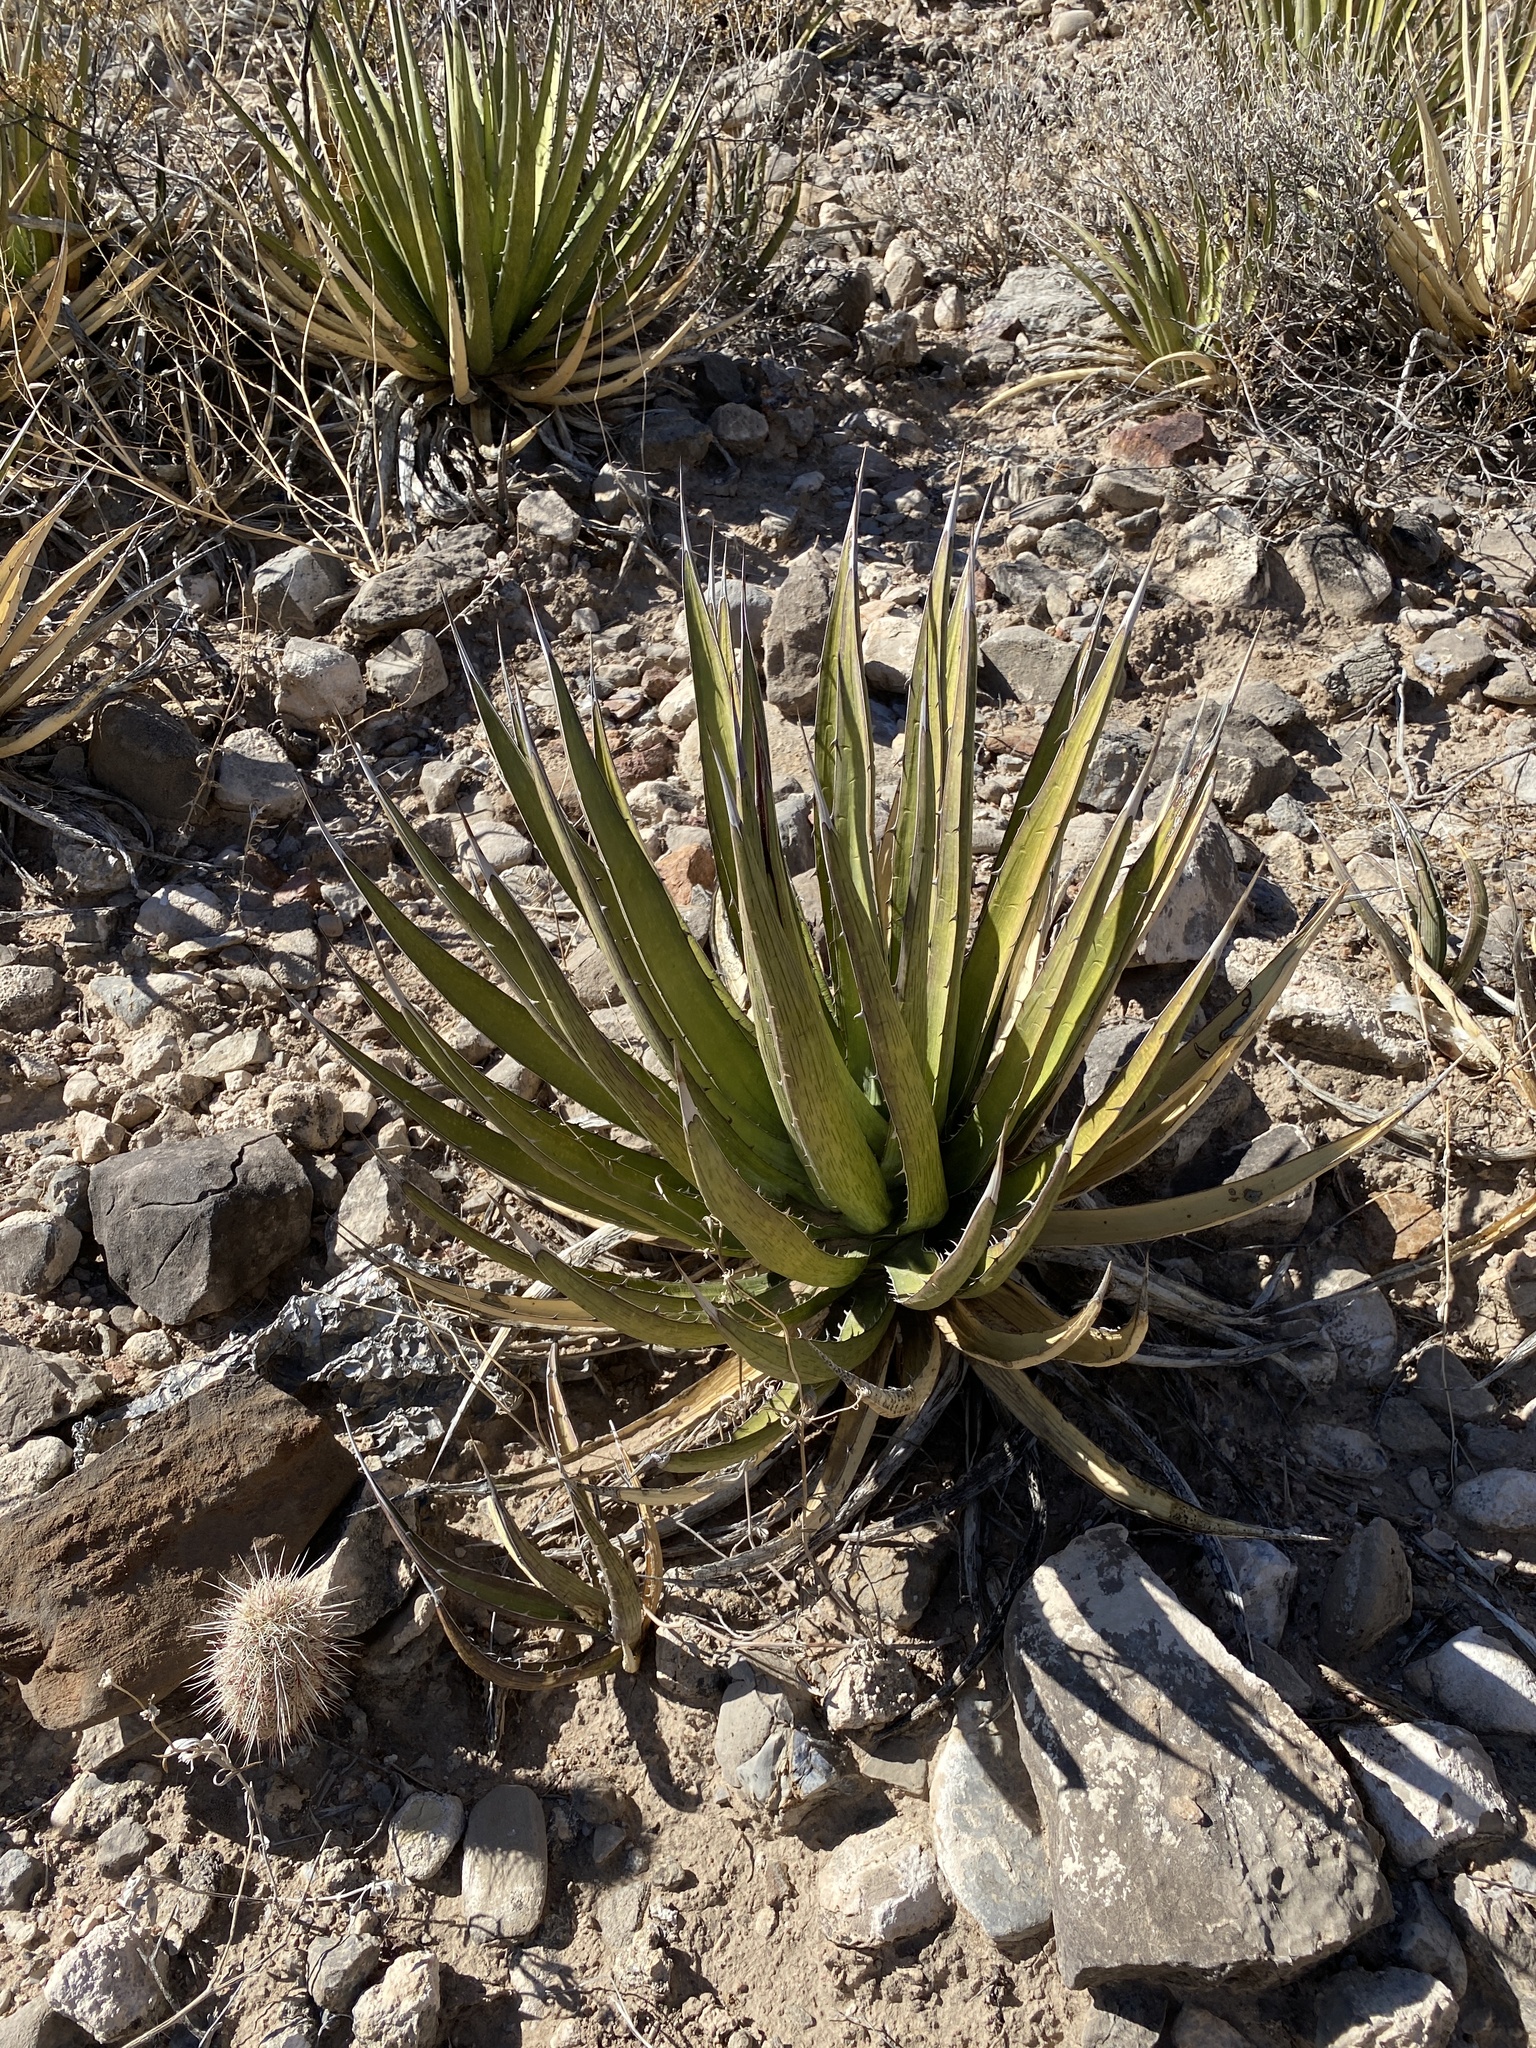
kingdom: Plantae
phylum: Tracheophyta
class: Liliopsida
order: Asparagales
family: Asparagaceae
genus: Agave
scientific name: Agave lechuguilla
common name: Lecheguilla agave
